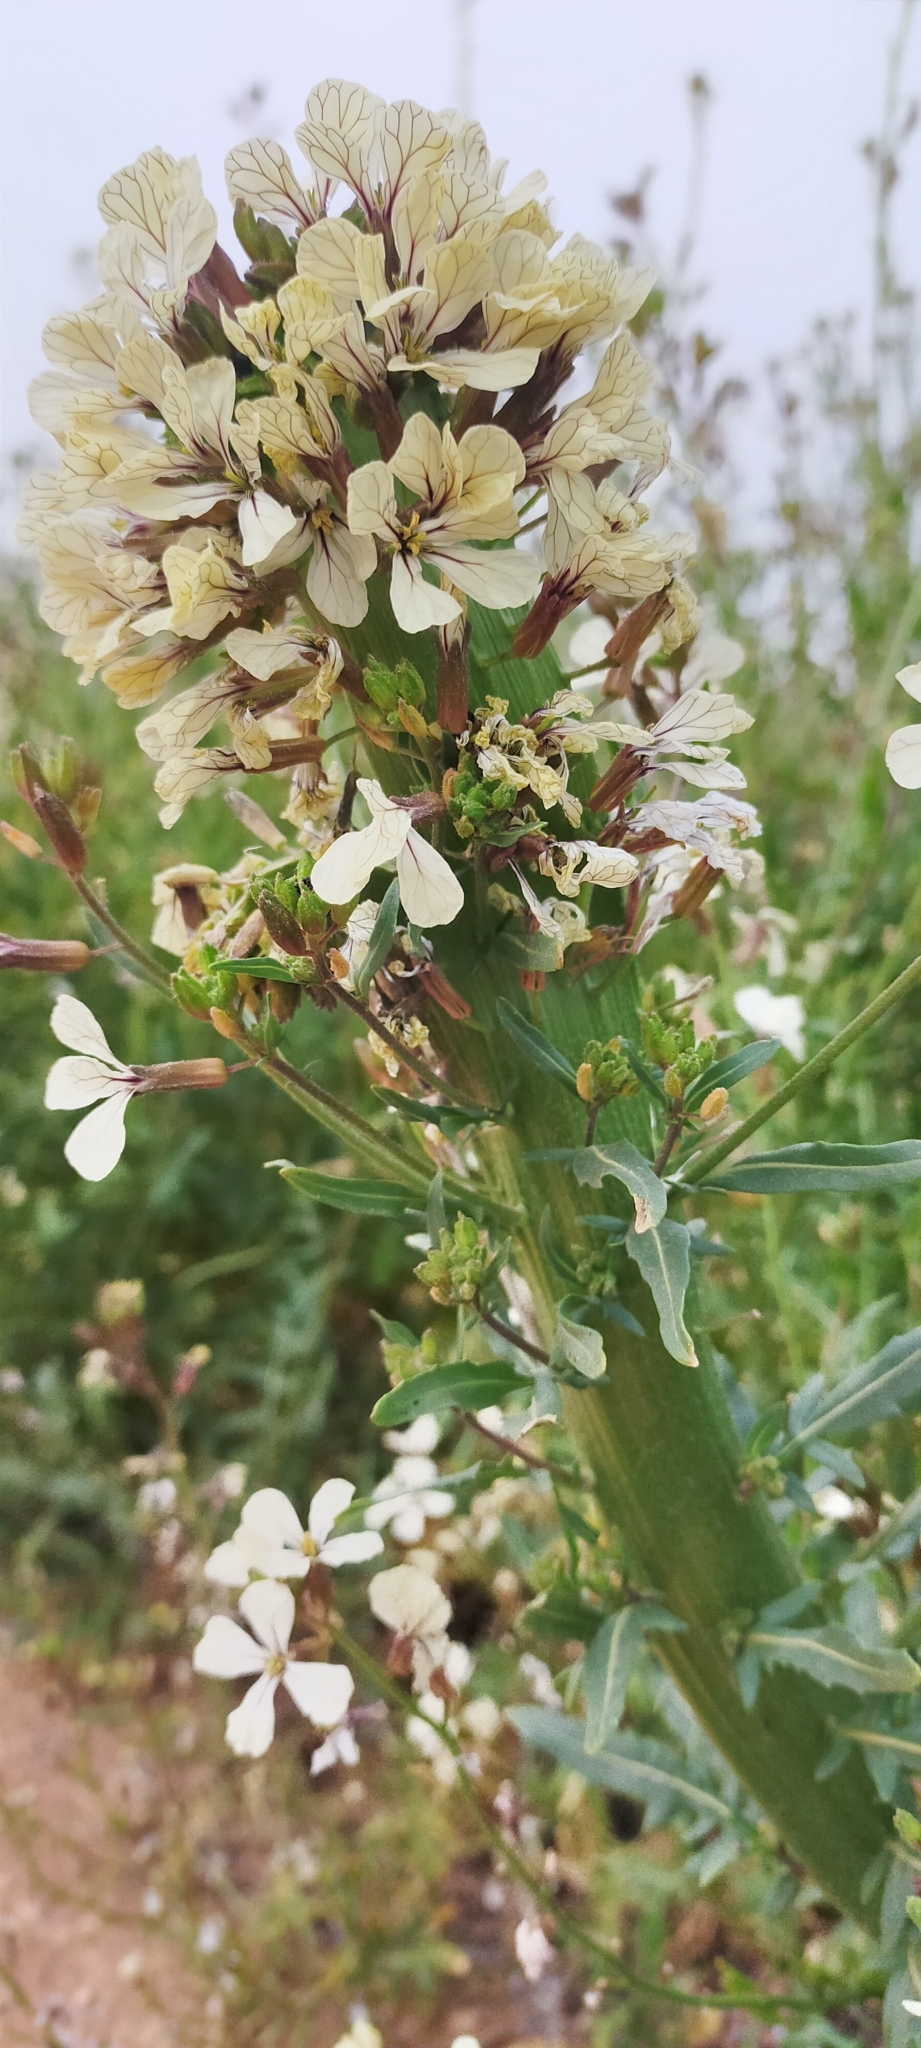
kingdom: Plantae
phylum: Tracheophyta
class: Magnoliopsida
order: Brassicales
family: Brassicaceae
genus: Eruca
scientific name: Eruca vesicaria
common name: Garden rocket
